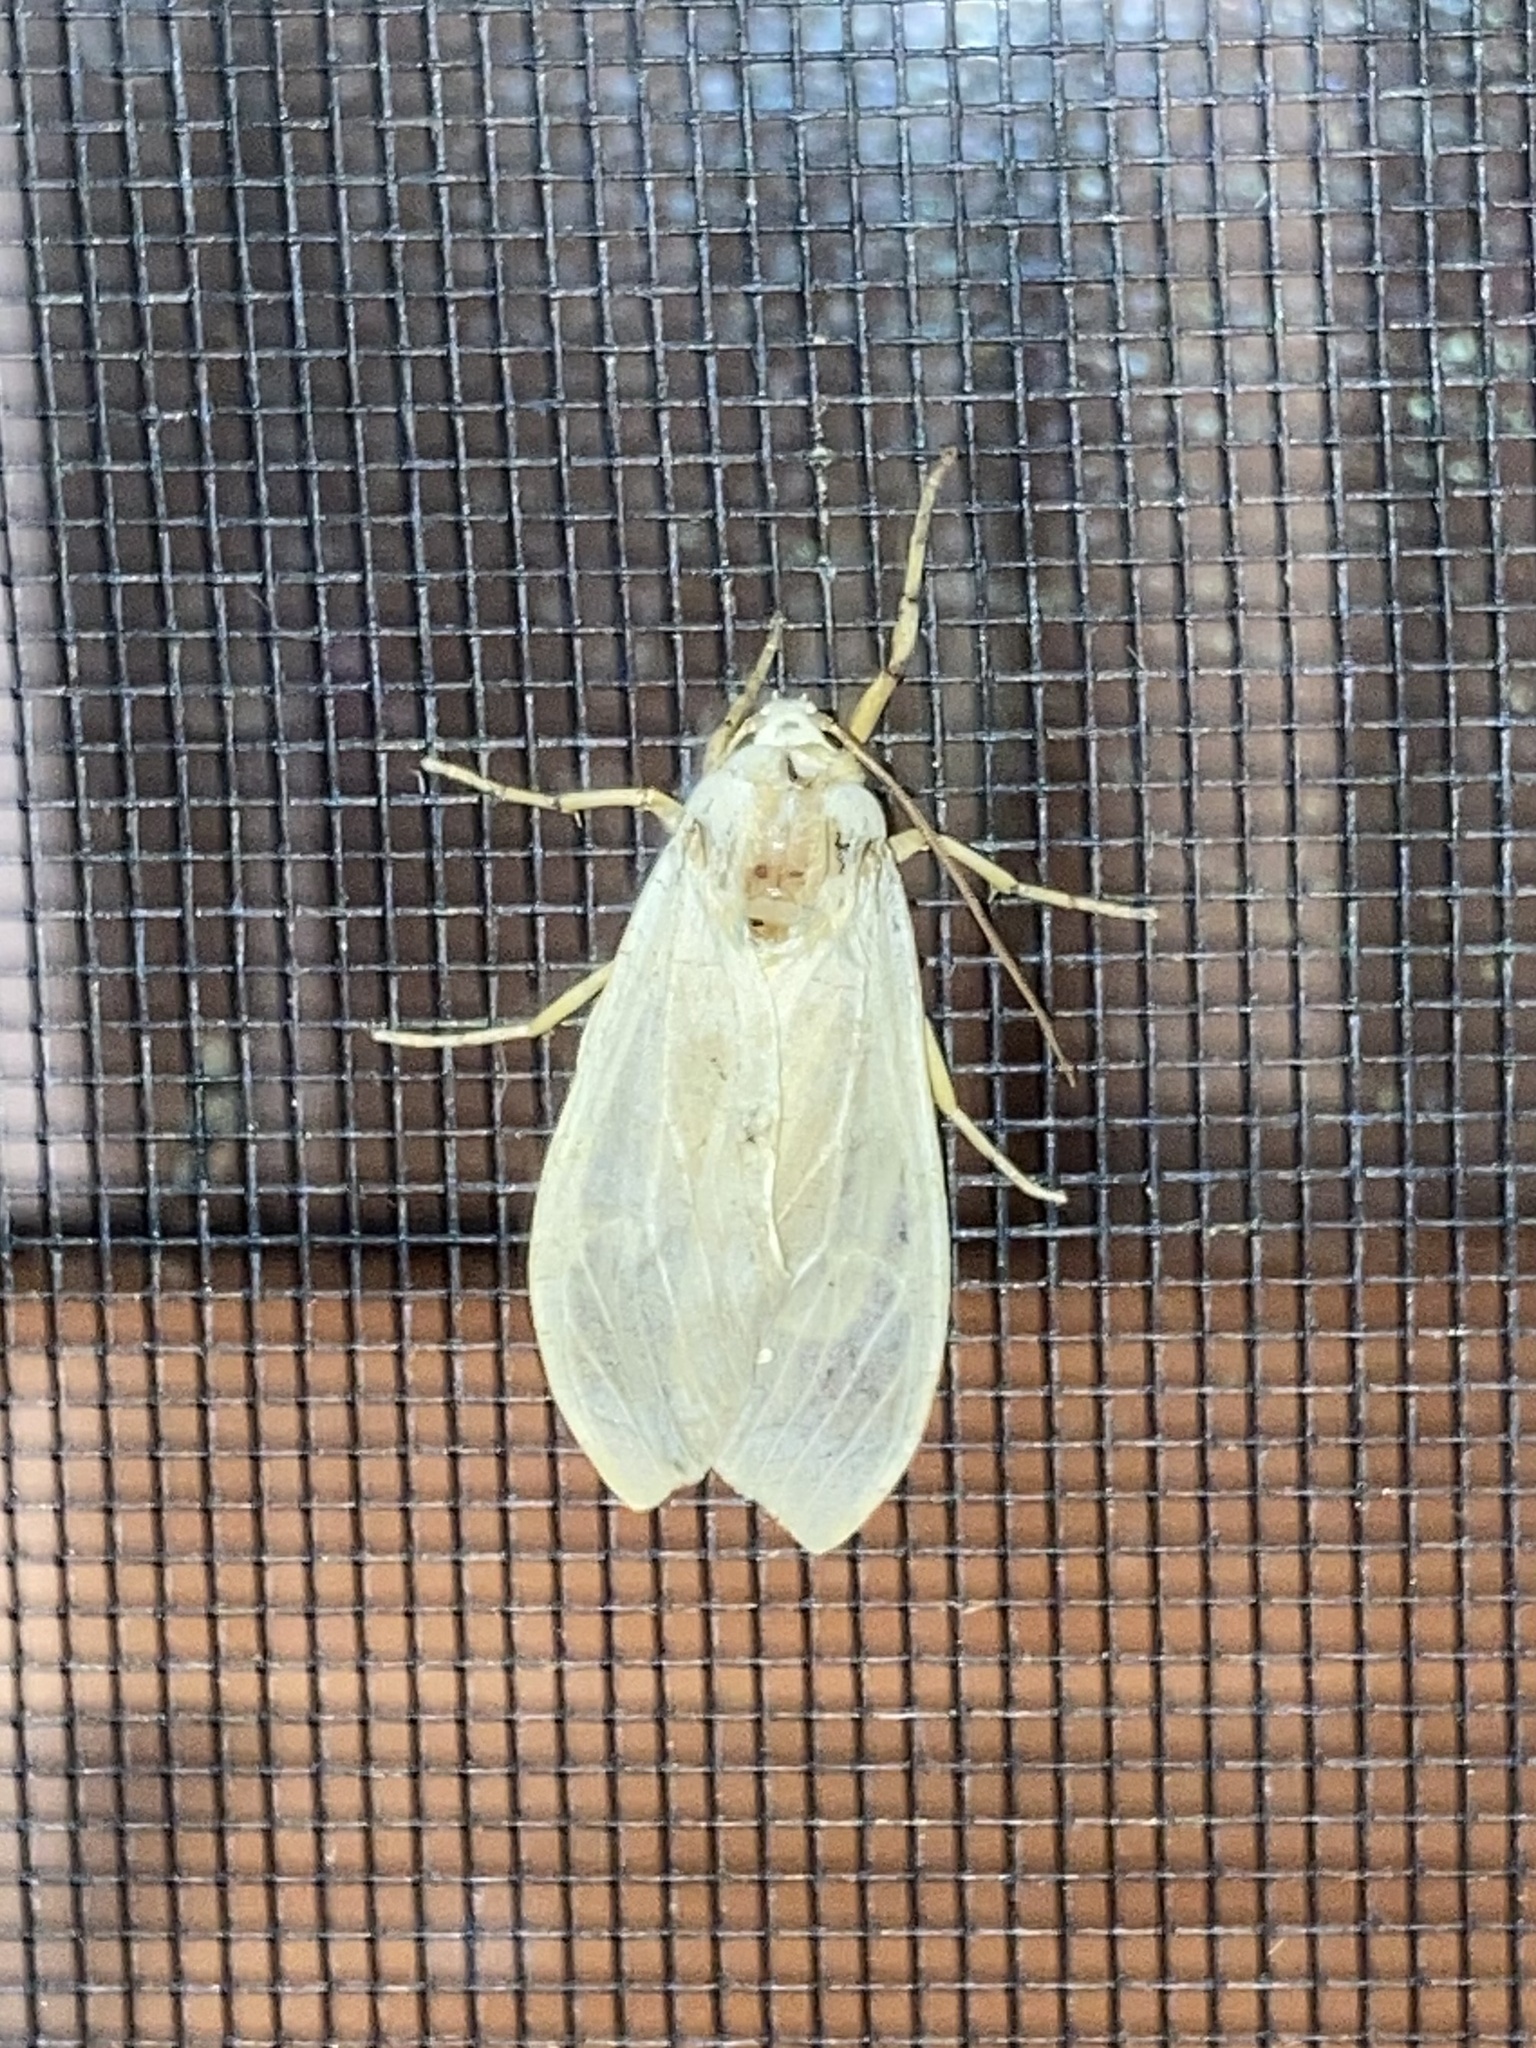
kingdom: Animalia
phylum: Arthropoda
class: Insecta
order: Lepidoptera
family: Erebidae
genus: Halysidota
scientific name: Halysidota
